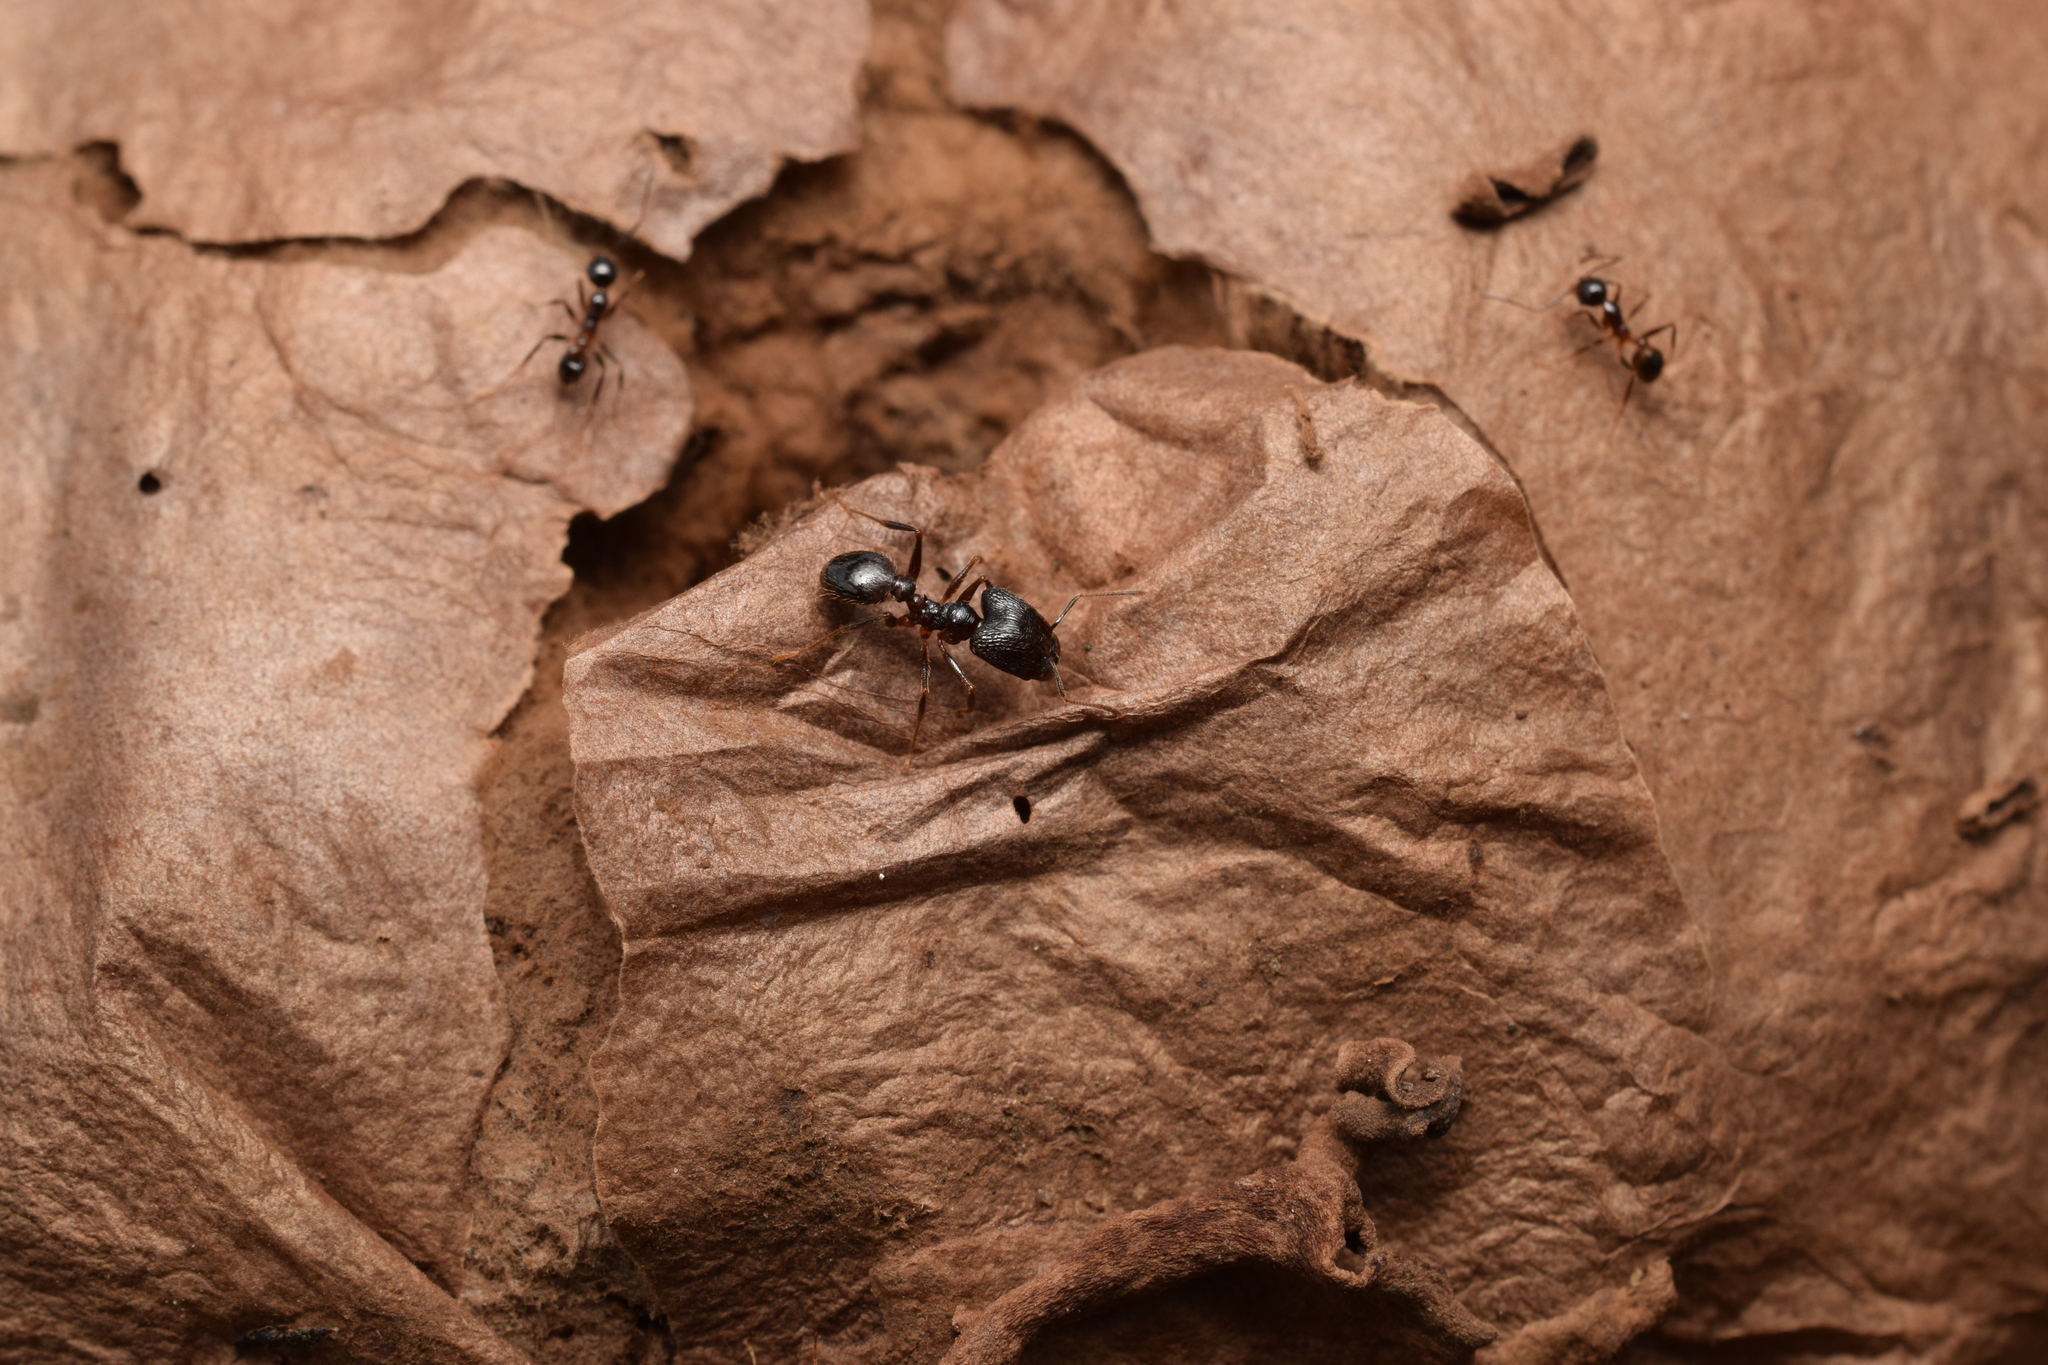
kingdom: Animalia
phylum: Arthropoda
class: Insecta
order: Hymenoptera
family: Formicidae
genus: Pheidole
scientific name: Pheidole noda
